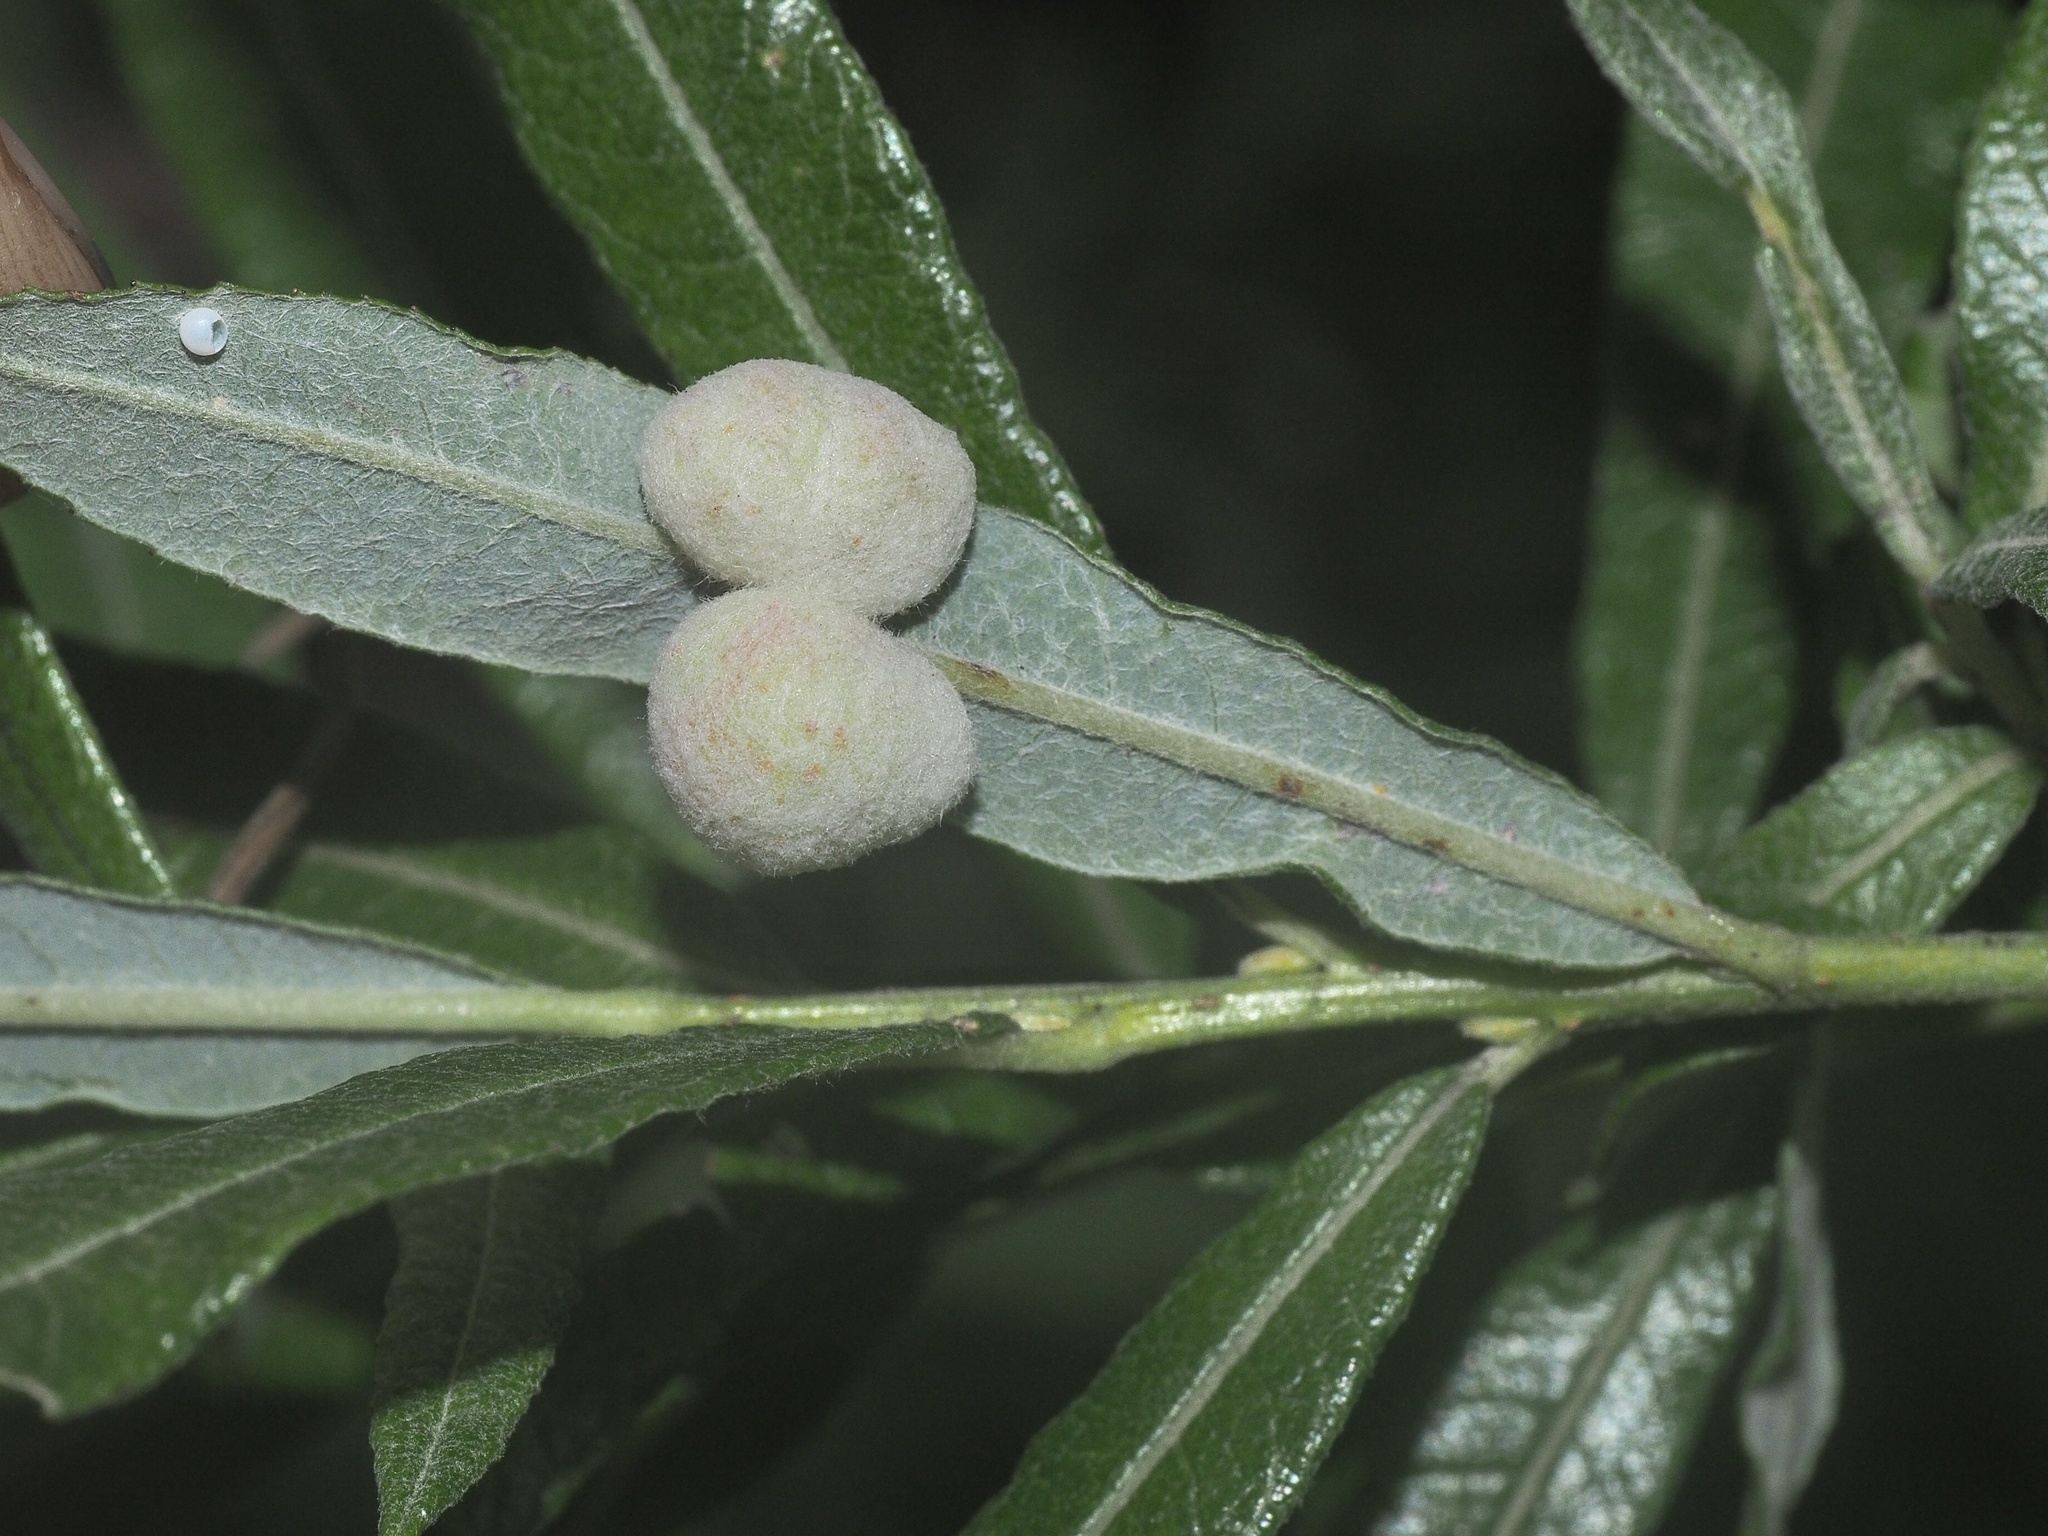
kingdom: Animalia
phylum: Arthropoda
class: Insecta
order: Hymenoptera
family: Tenthredinidae
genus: Euura
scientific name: Euura kriechbaumeri
